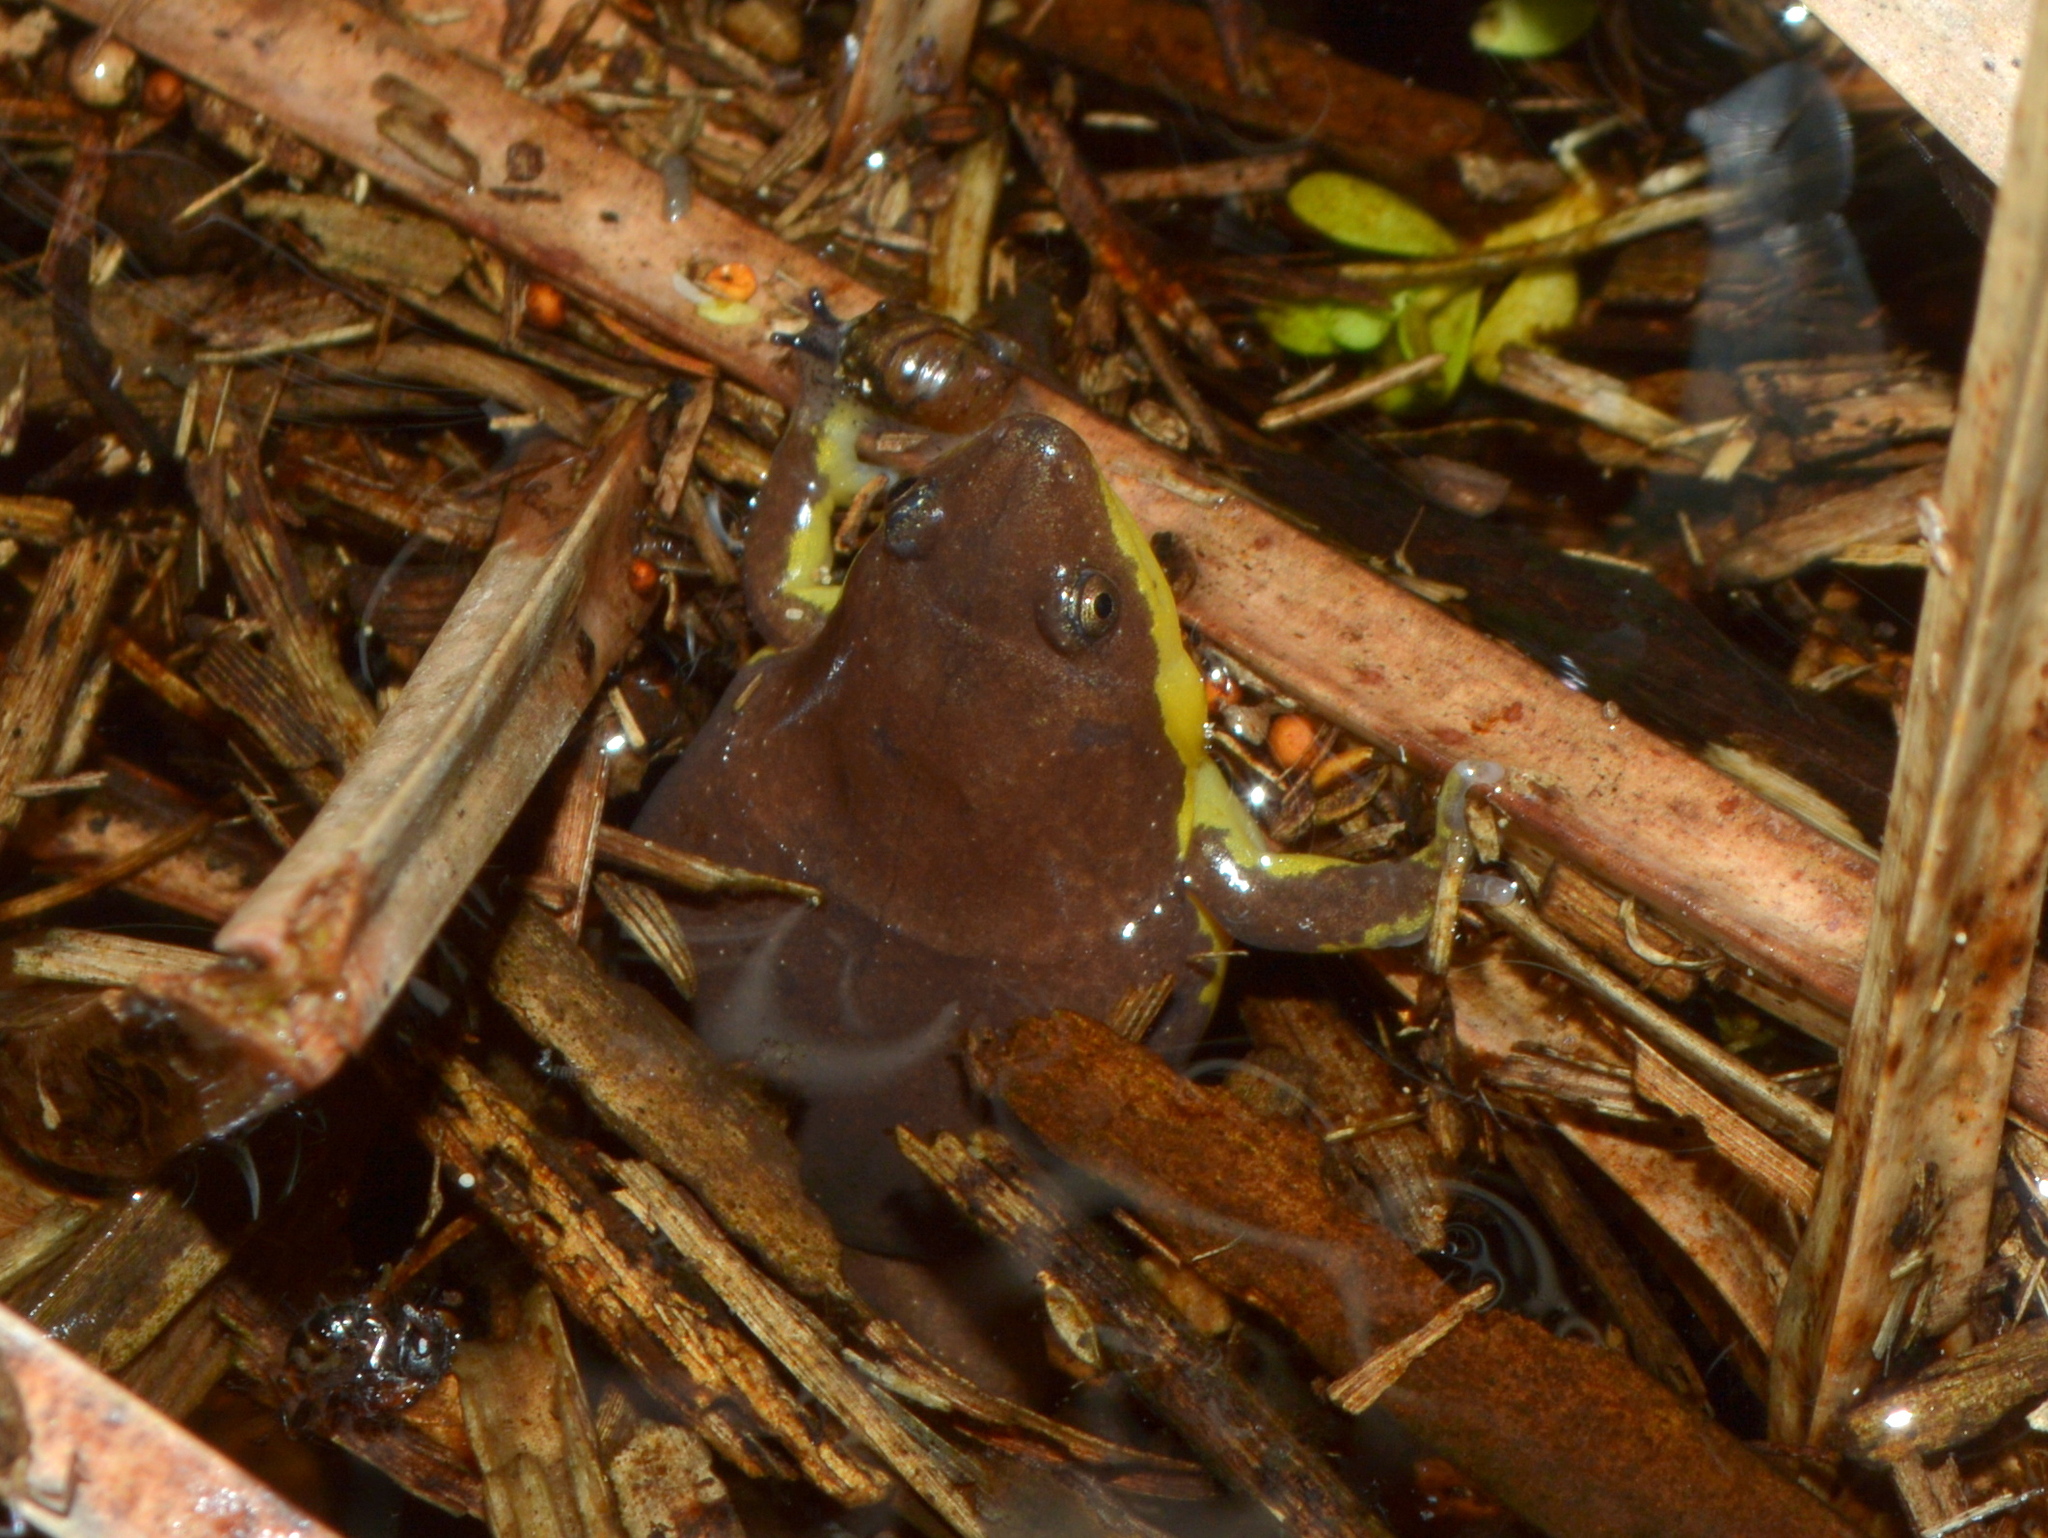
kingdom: Animalia
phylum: Chordata
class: Amphibia
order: Anura
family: Microhylidae
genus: Elachistocleis
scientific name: Elachistocleis bicolor
